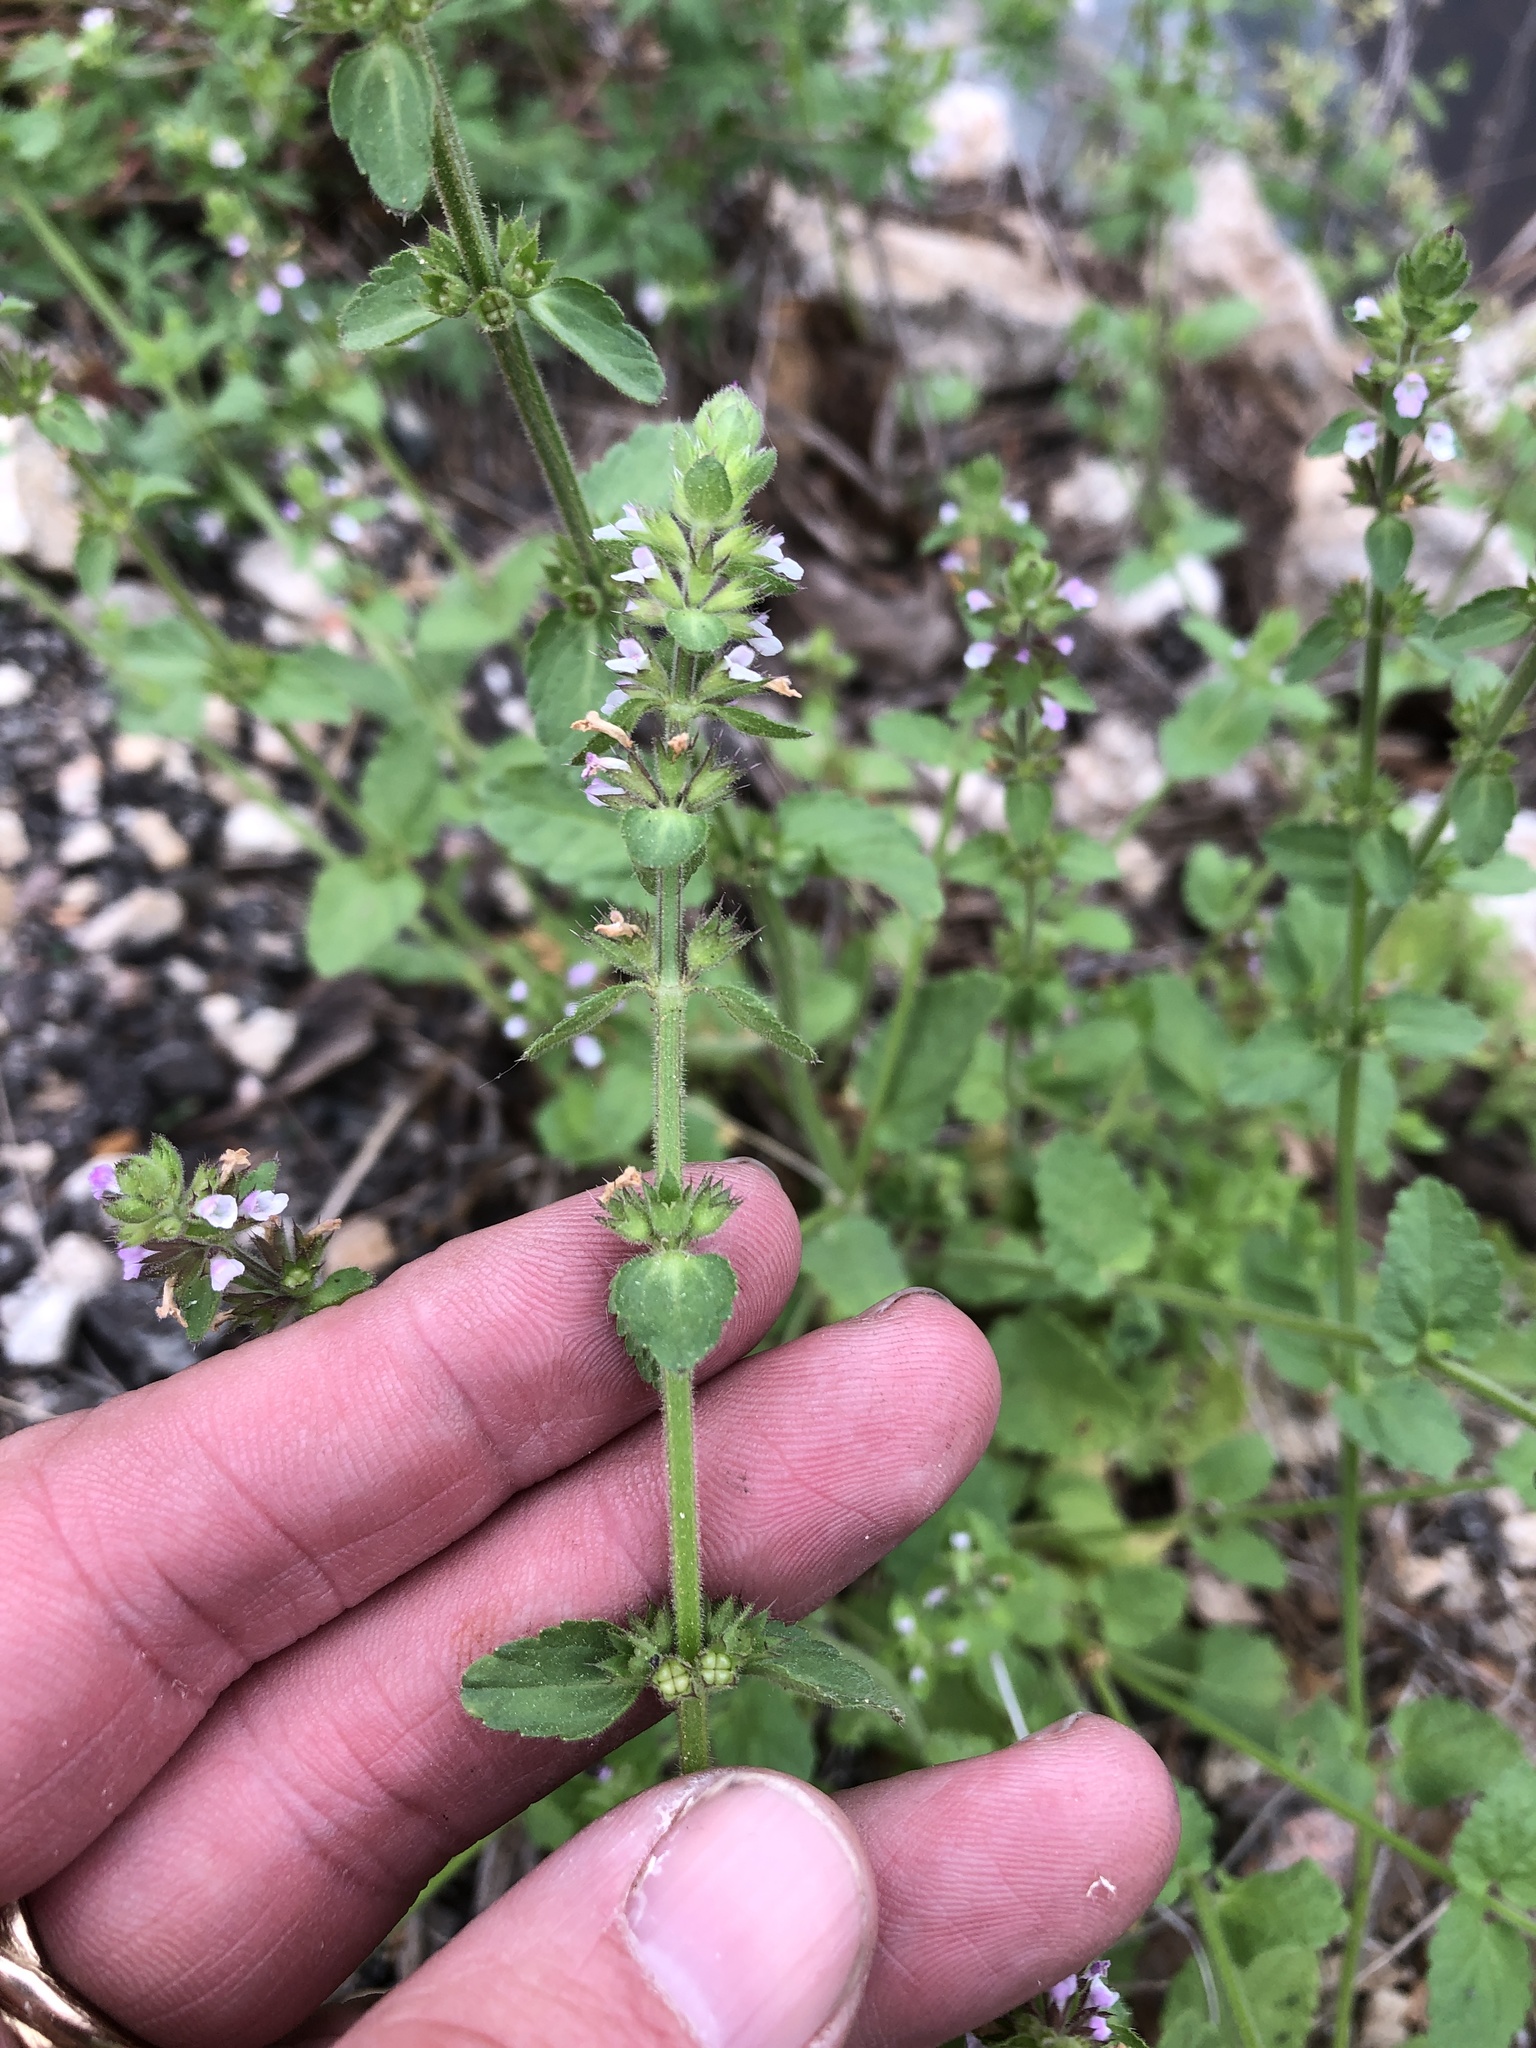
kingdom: Plantae
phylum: Tracheophyta
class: Magnoliopsida
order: Lamiales
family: Lamiaceae
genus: Stachys
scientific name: Stachys
